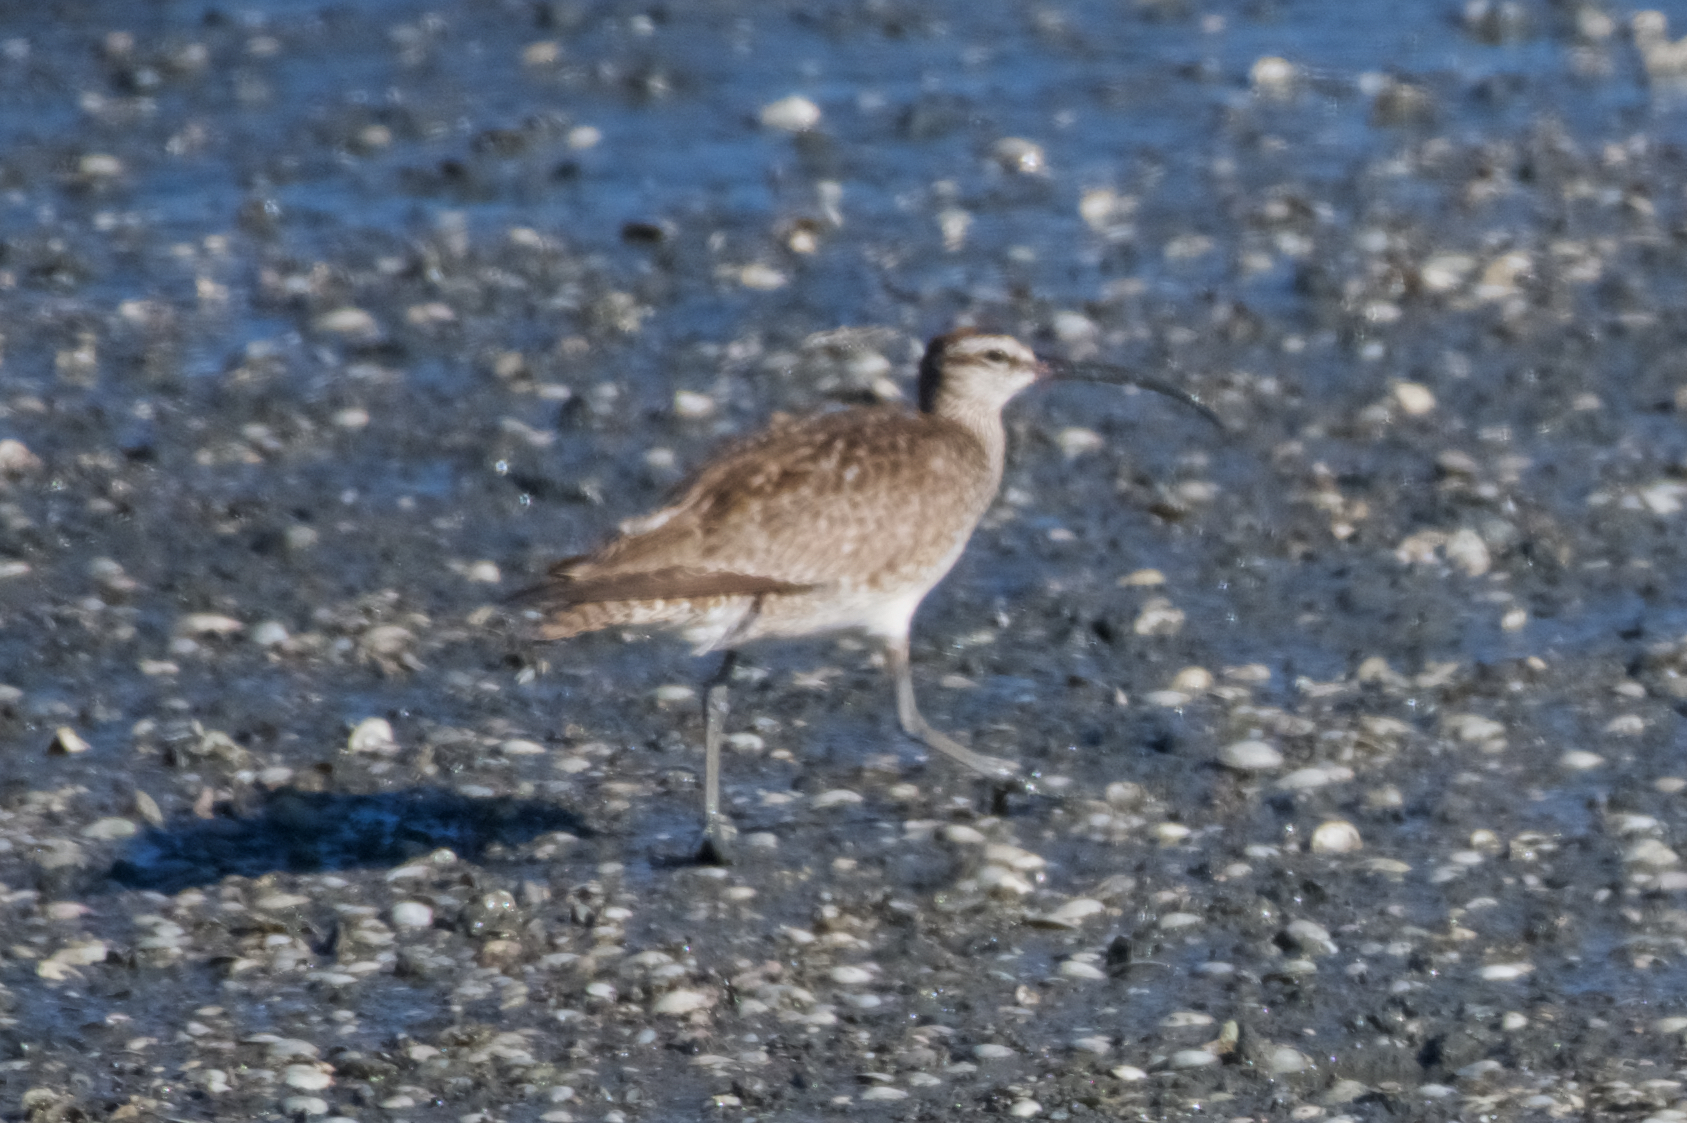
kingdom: Animalia
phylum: Chordata
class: Aves
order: Charadriiformes
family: Scolopacidae
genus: Numenius
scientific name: Numenius phaeopus
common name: Whimbrel
